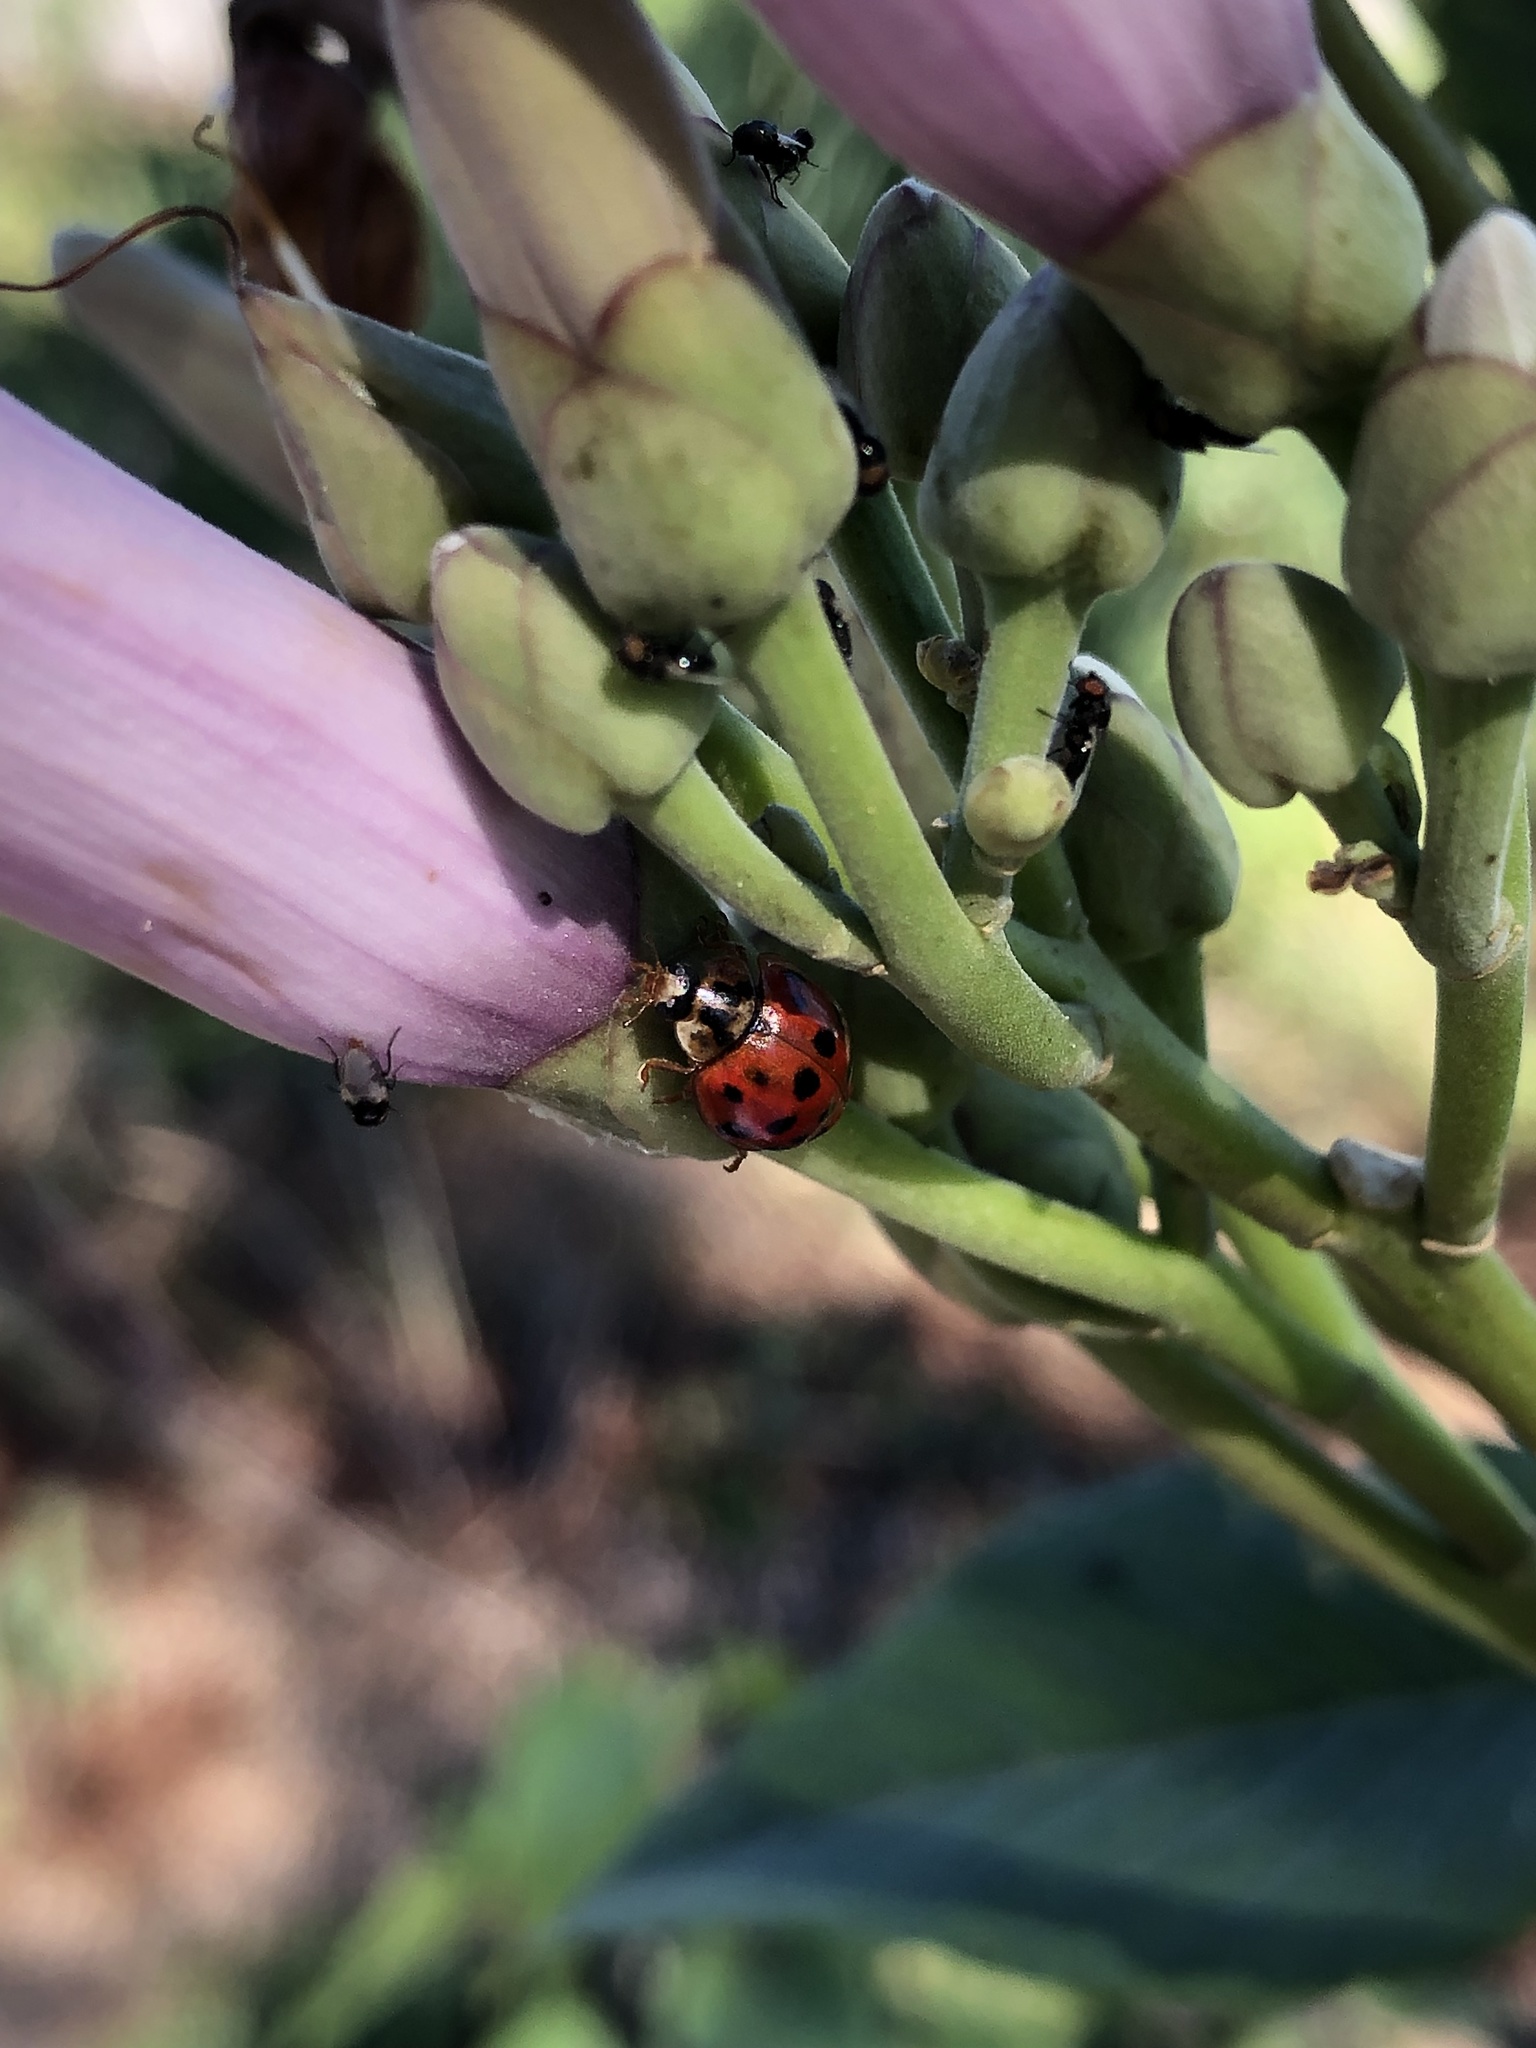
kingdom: Animalia
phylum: Arthropoda
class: Insecta
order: Coleoptera
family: Coccinellidae
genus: Harmonia
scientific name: Harmonia axyridis
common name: Harlequin ladybird
